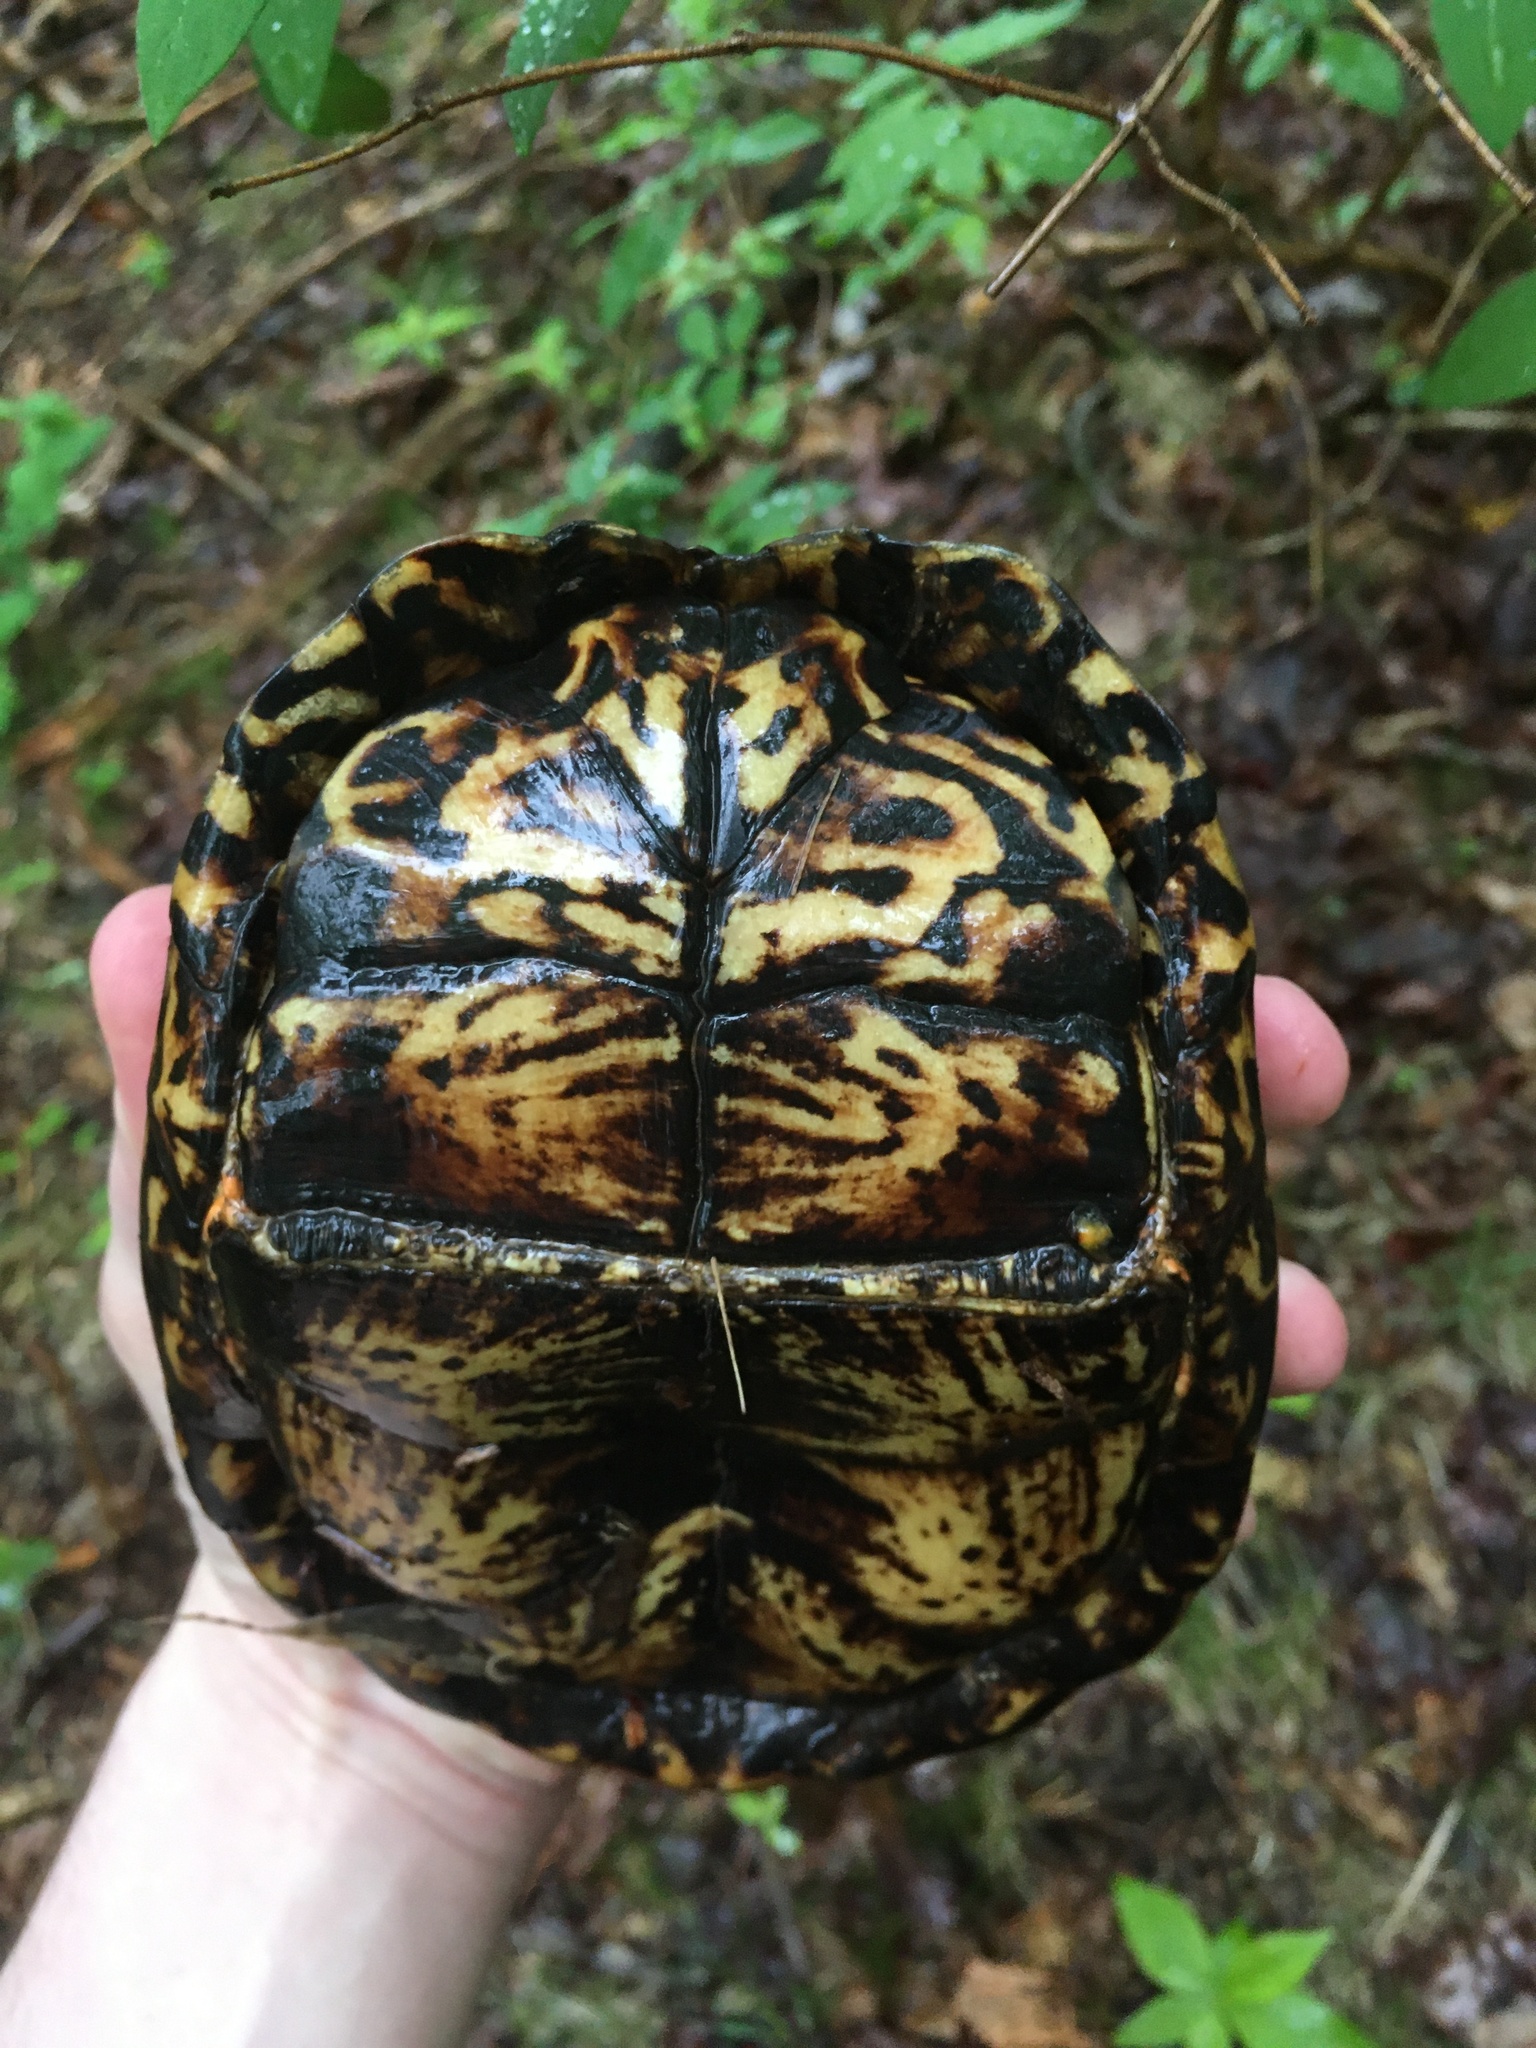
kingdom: Animalia
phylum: Chordata
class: Testudines
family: Emydidae
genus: Terrapene
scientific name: Terrapene carolina
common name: Common box turtle
